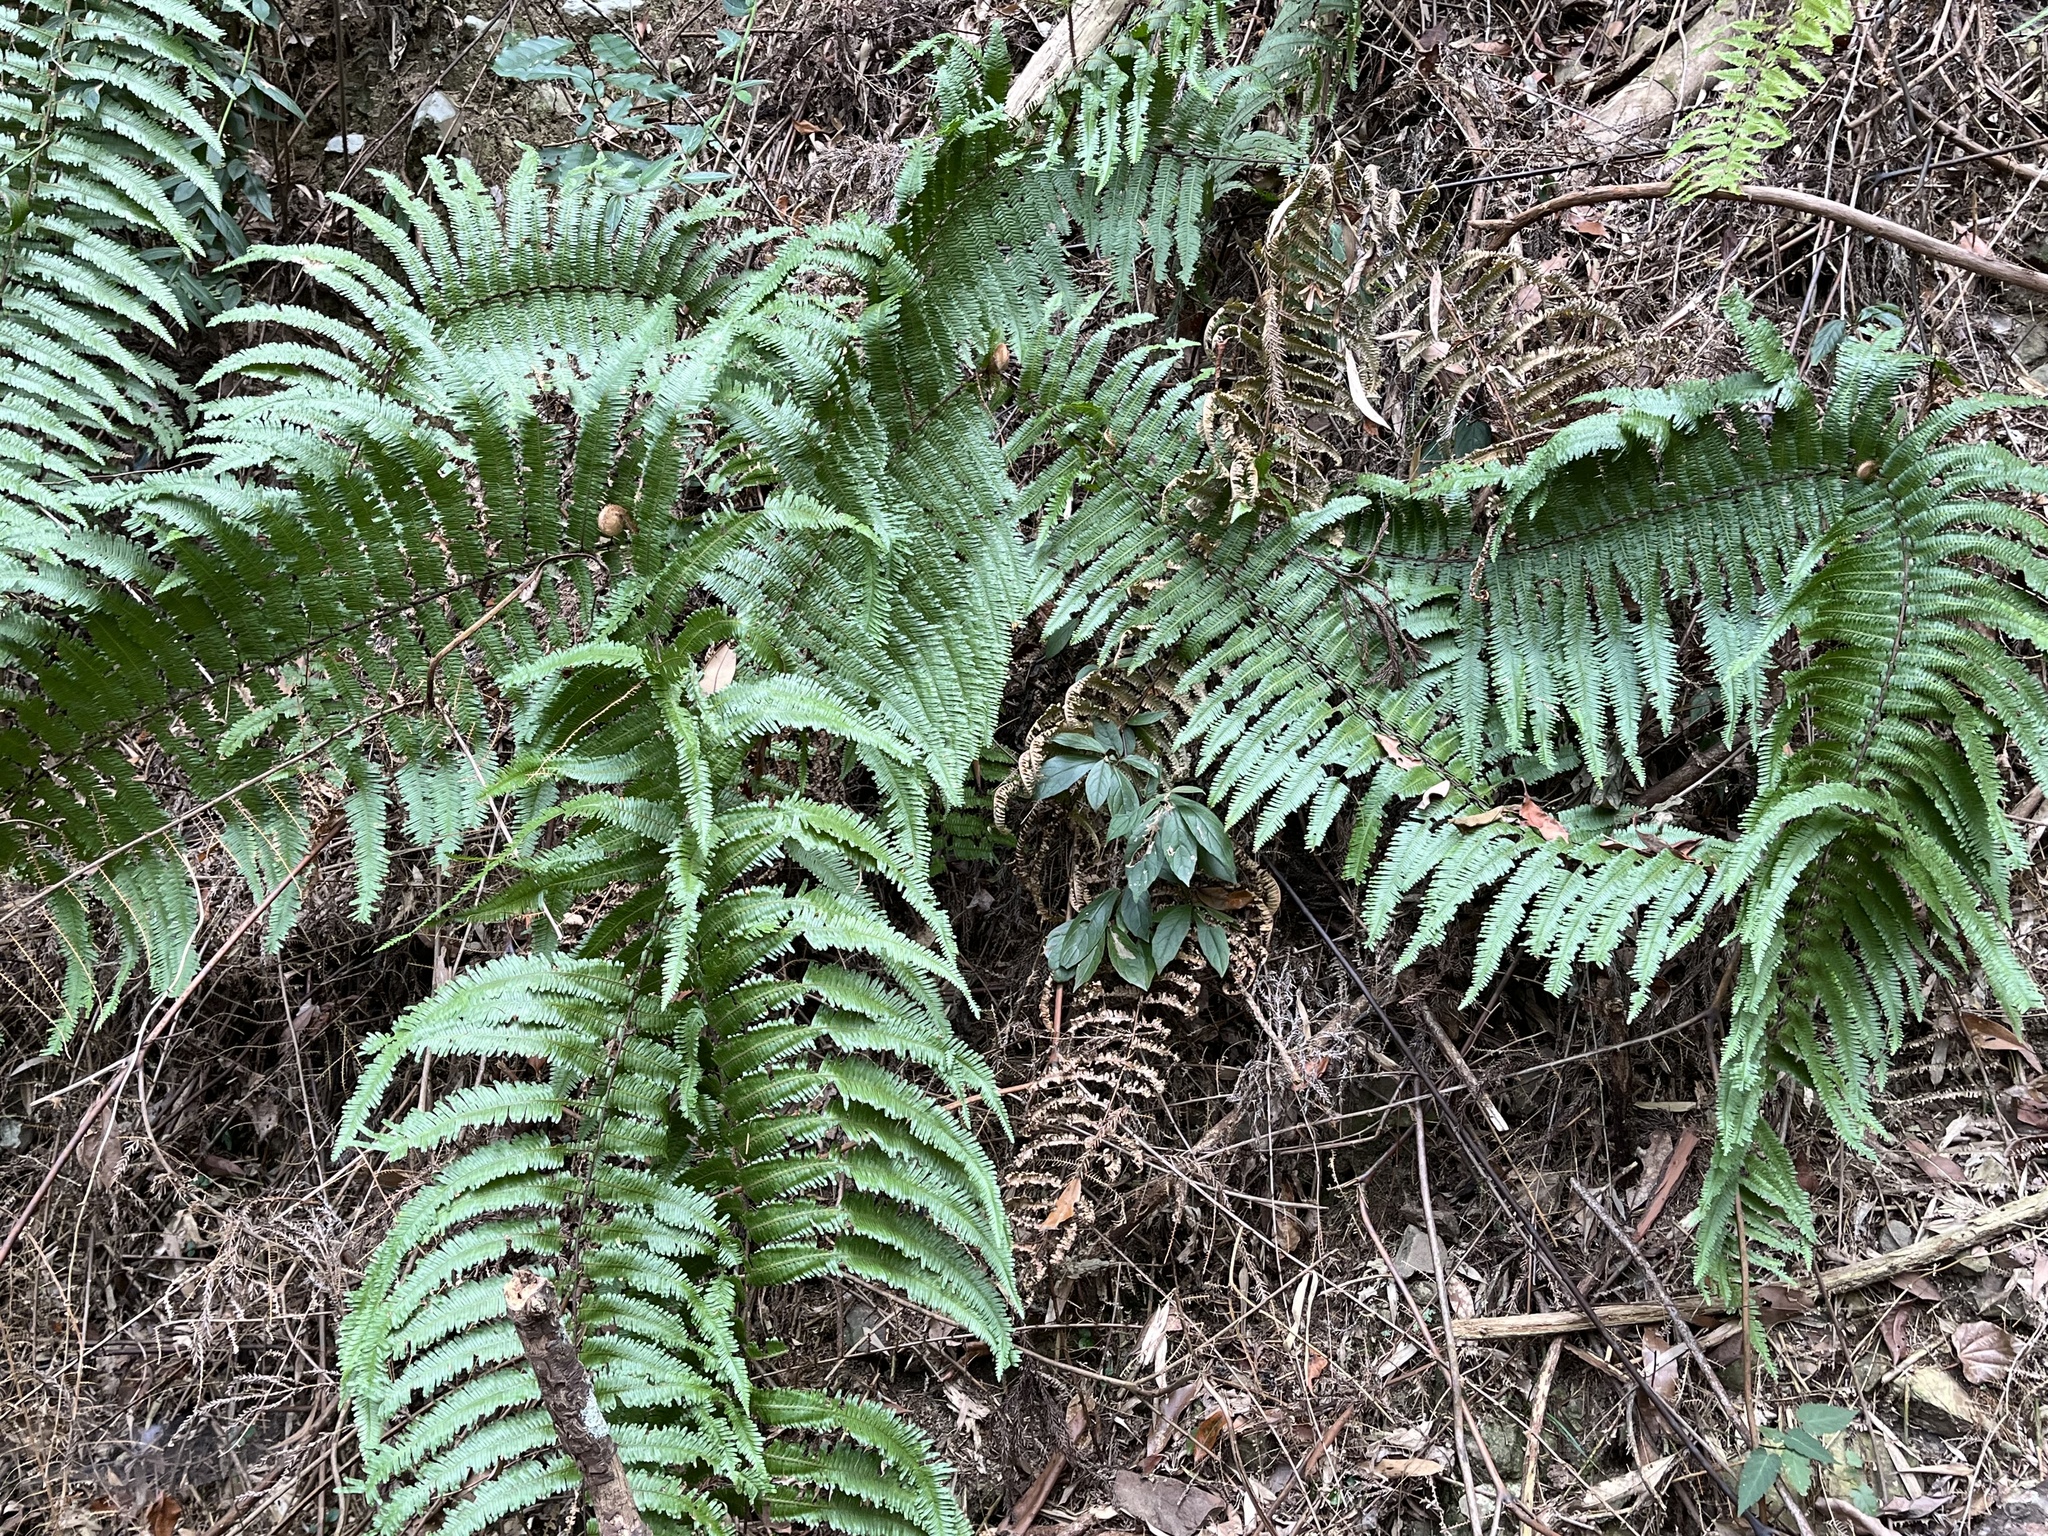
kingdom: Plantae
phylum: Tracheophyta
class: Polypodiopsida
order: Gleicheniales
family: Gleicheniaceae
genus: Diplopterygium
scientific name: Diplopterygium chinense
